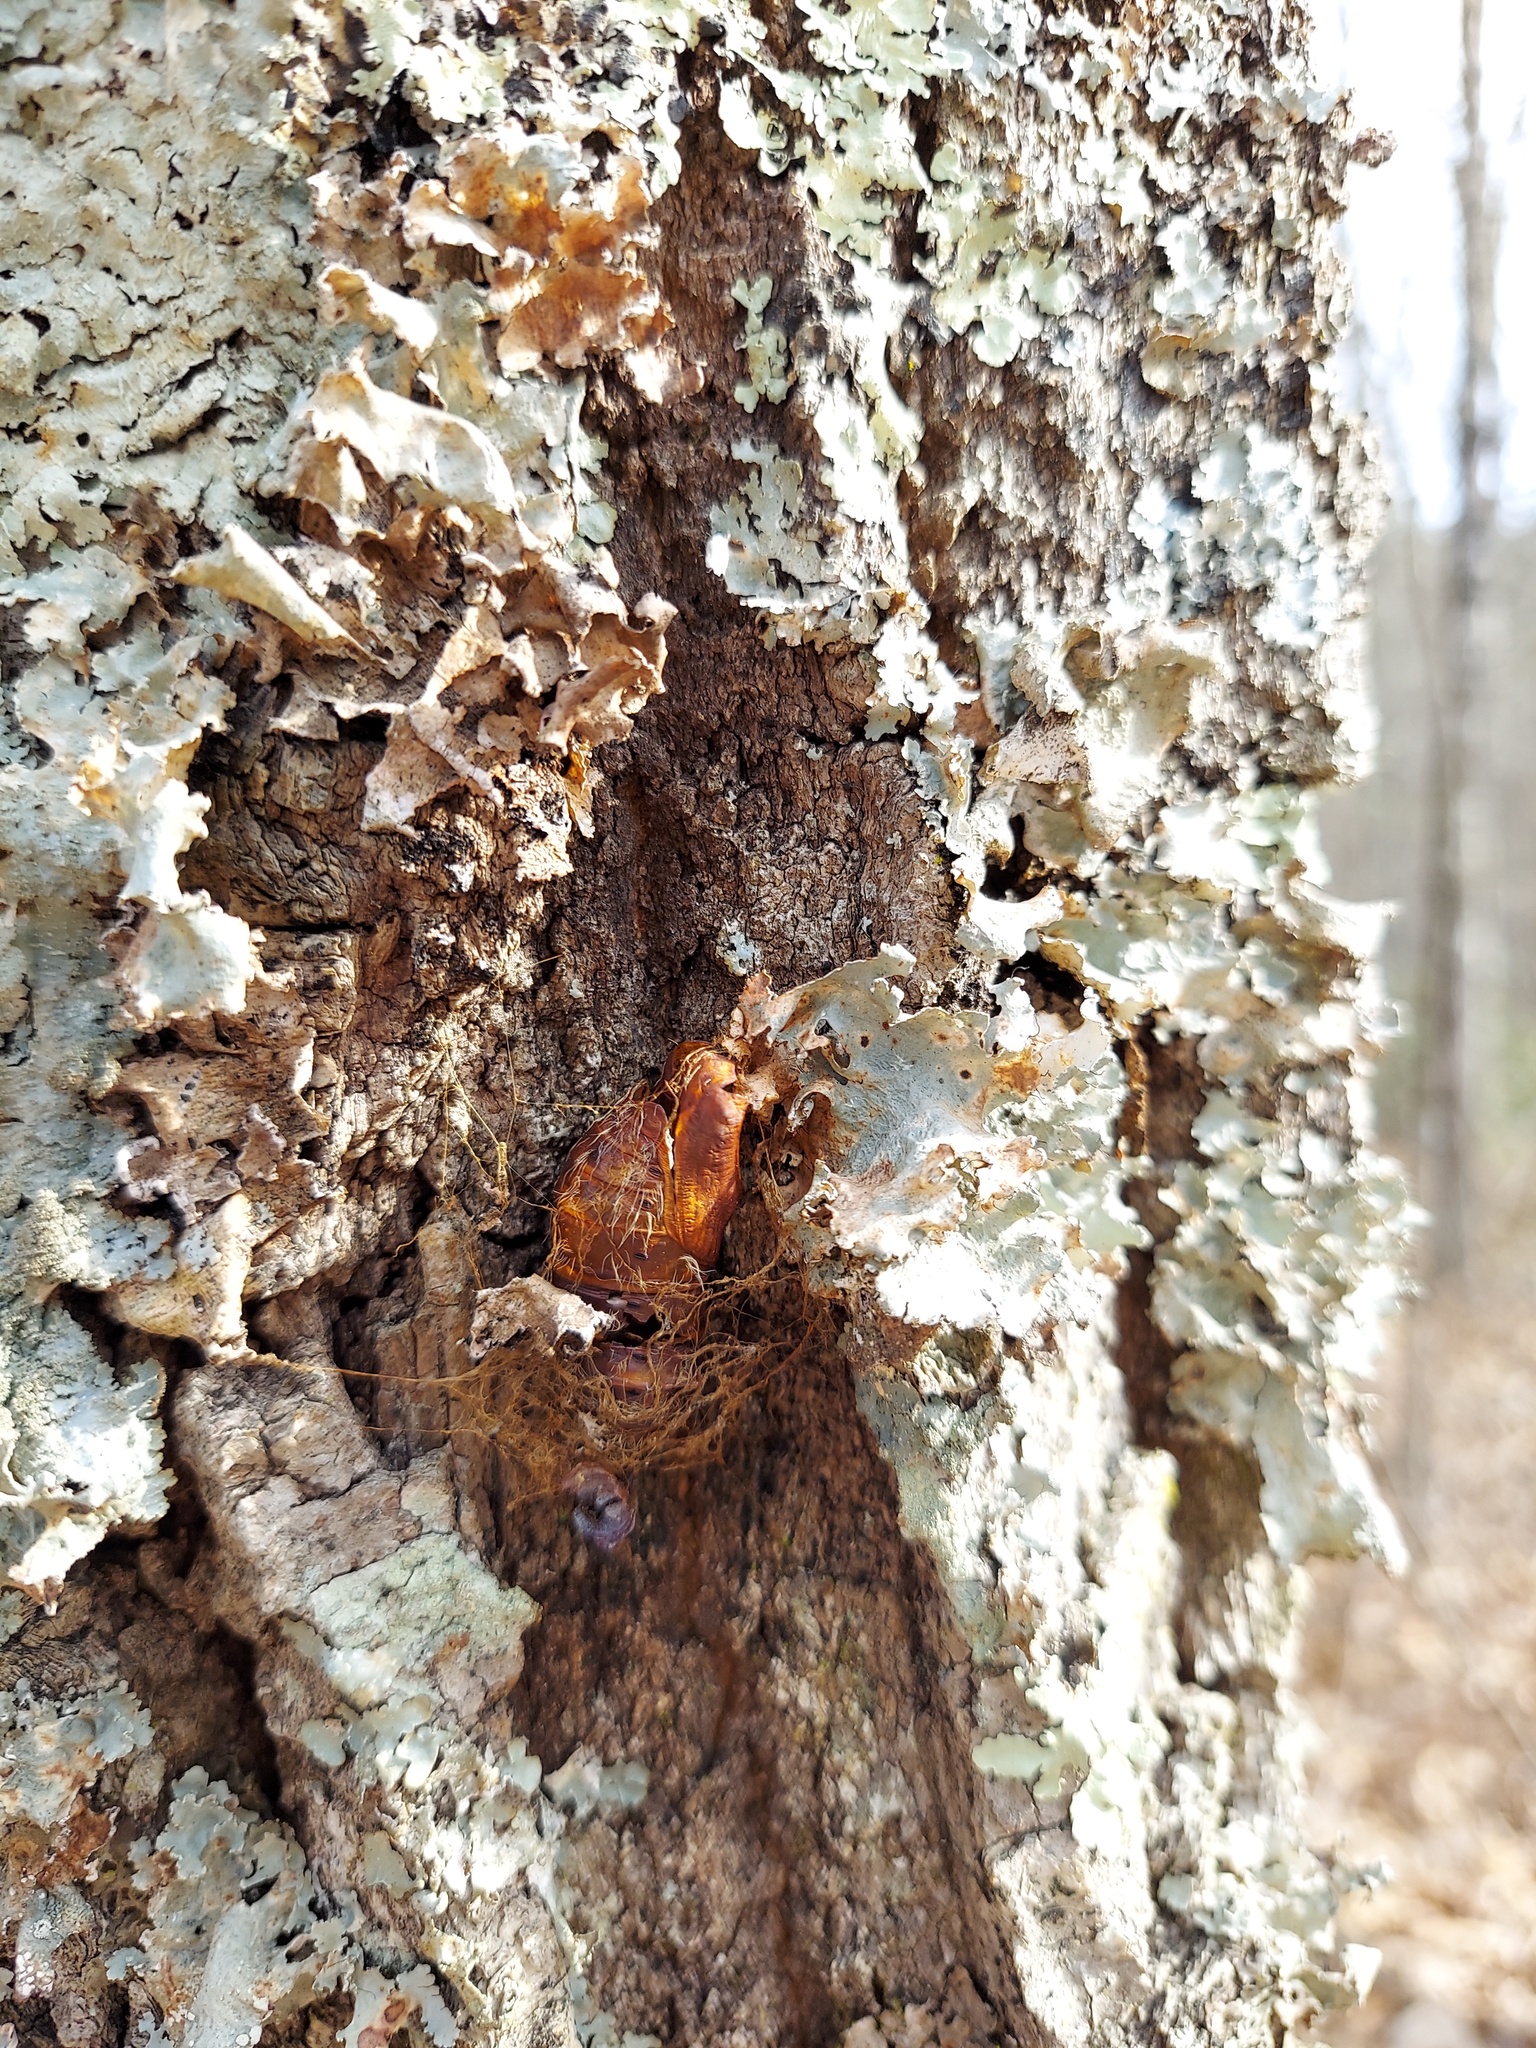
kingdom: Animalia
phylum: Arthropoda
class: Insecta
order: Lepidoptera
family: Erebidae
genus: Lymantria
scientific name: Lymantria dispar
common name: Gypsy moth
